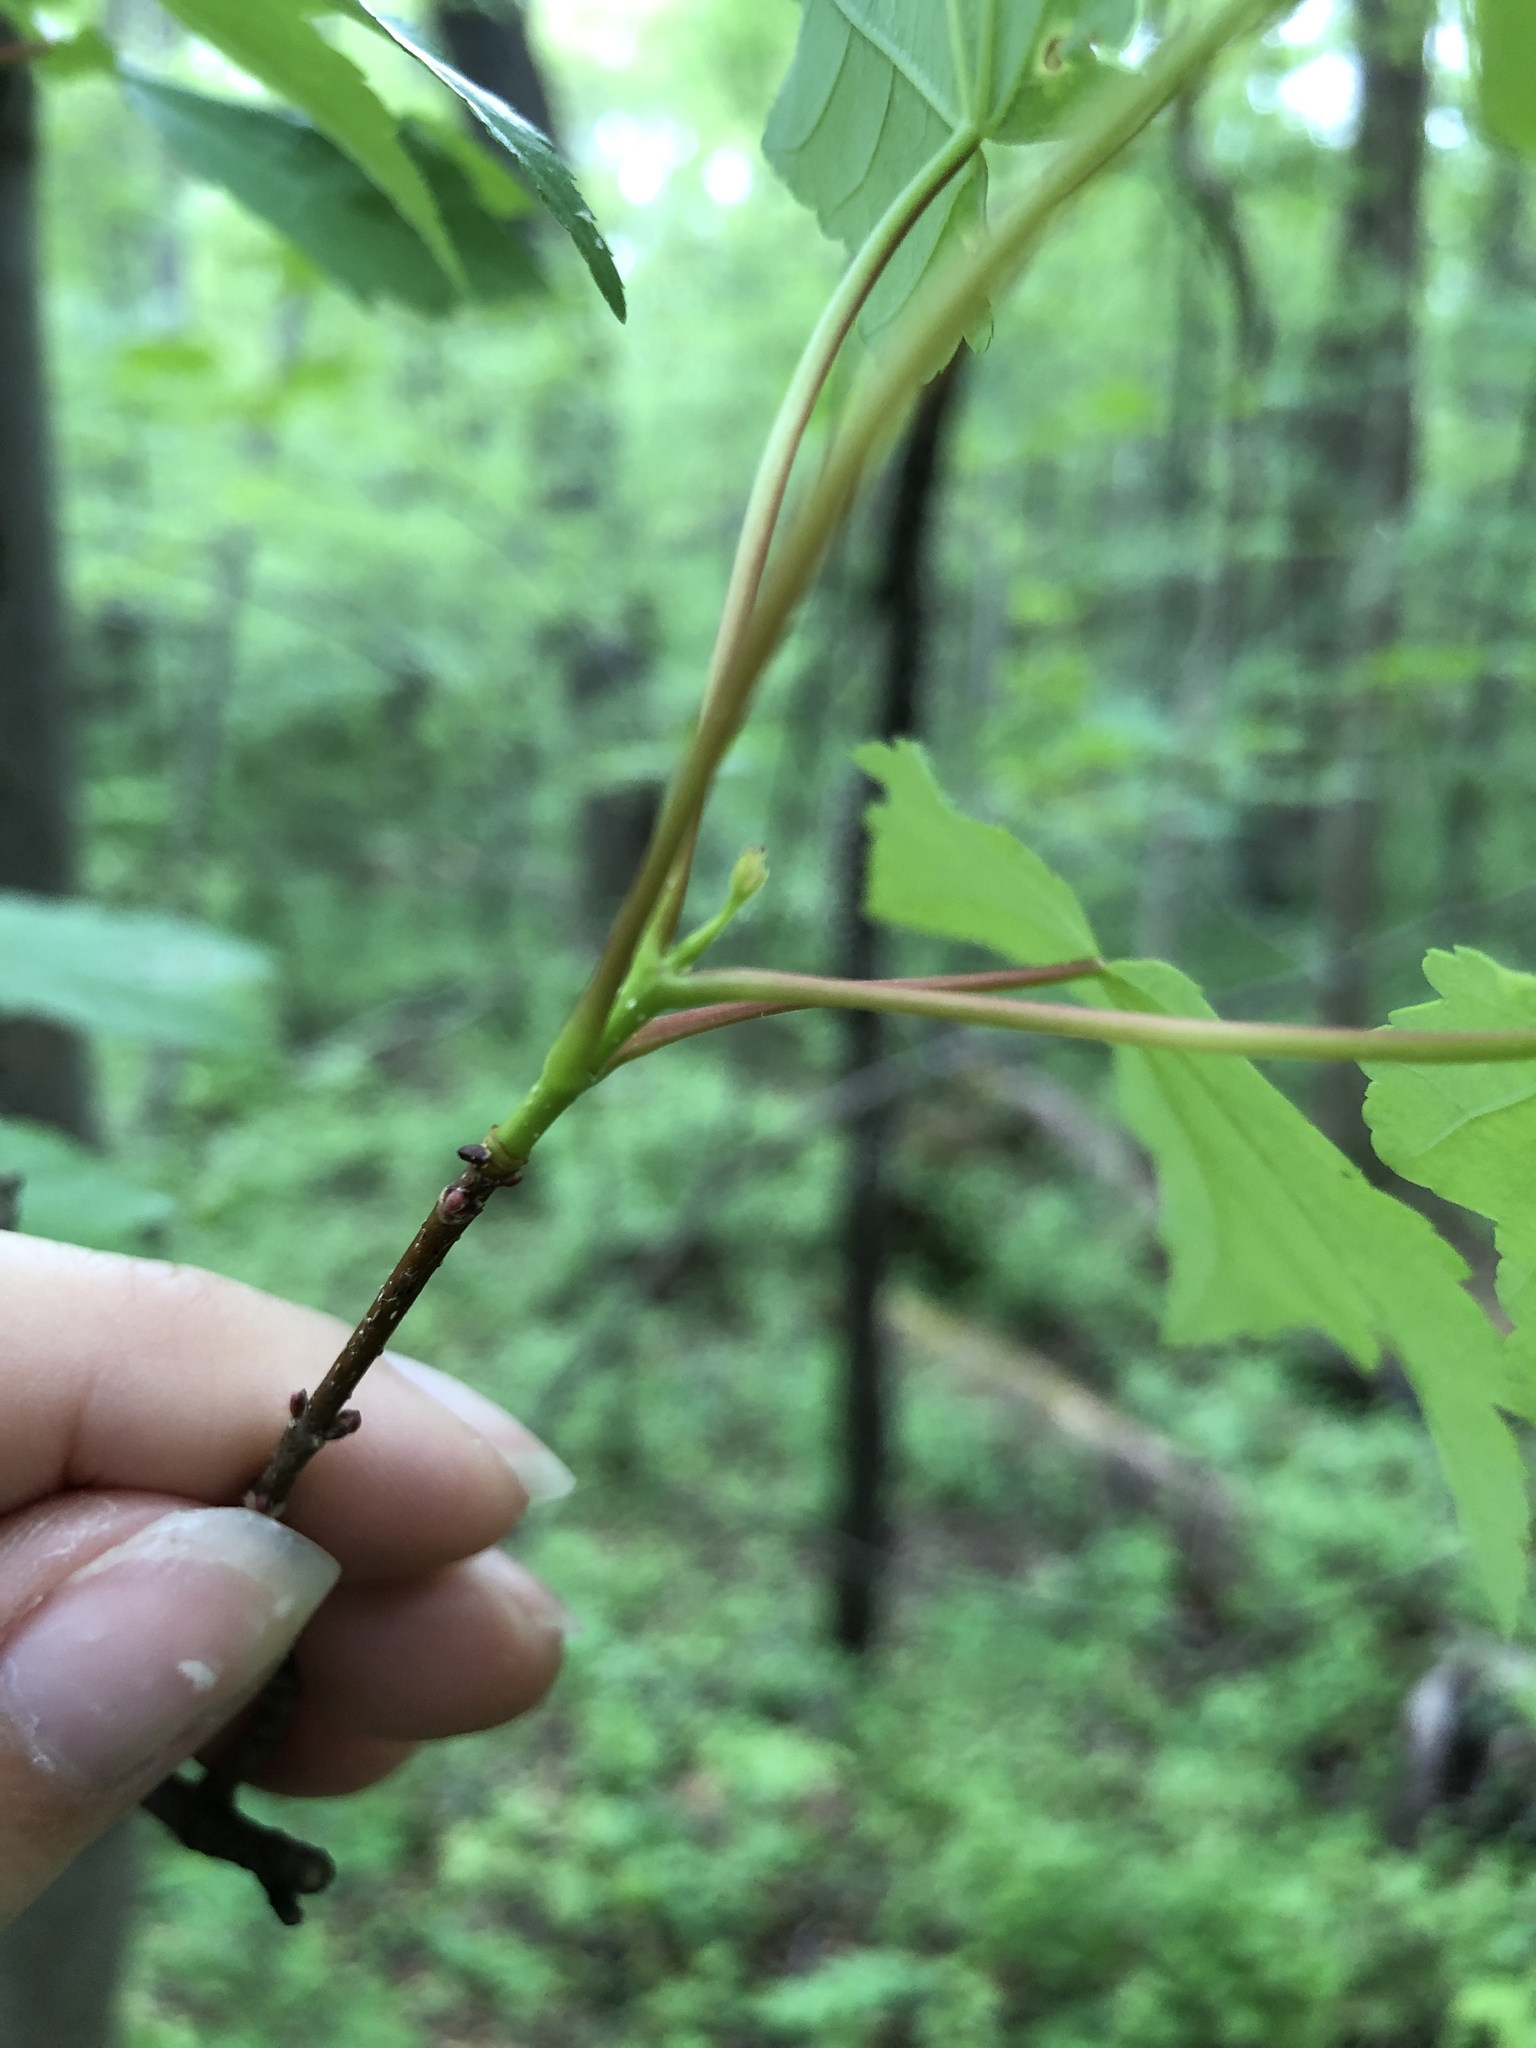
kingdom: Plantae
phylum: Tracheophyta
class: Magnoliopsida
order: Sapindales
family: Sapindaceae
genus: Acer
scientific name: Acer rubrum
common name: Red maple
